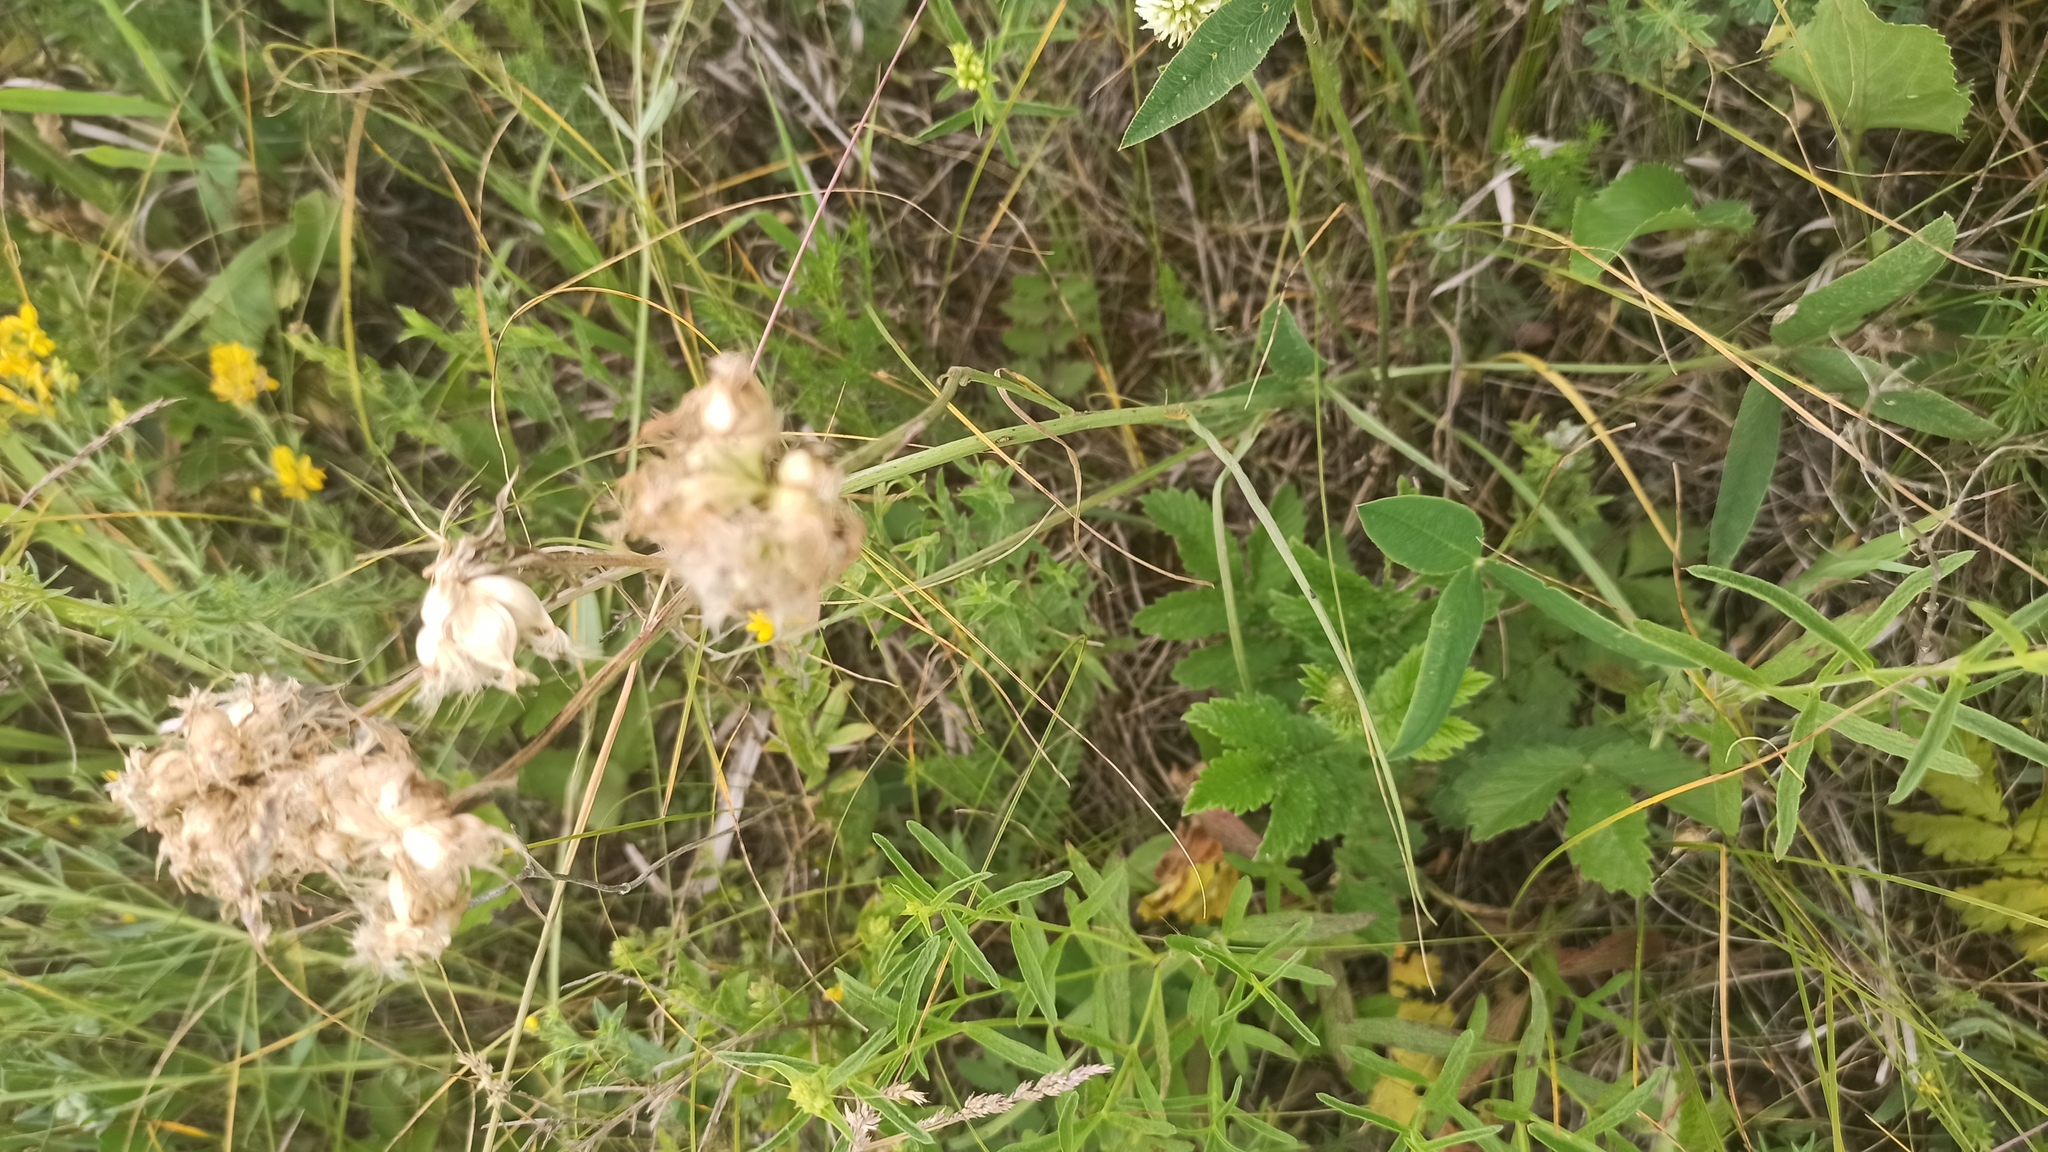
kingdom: Plantae
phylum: Tracheophyta
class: Magnoliopsida
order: Asterales
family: Asteraceae
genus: Scorzonera
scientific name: Scorzonera purpurea
